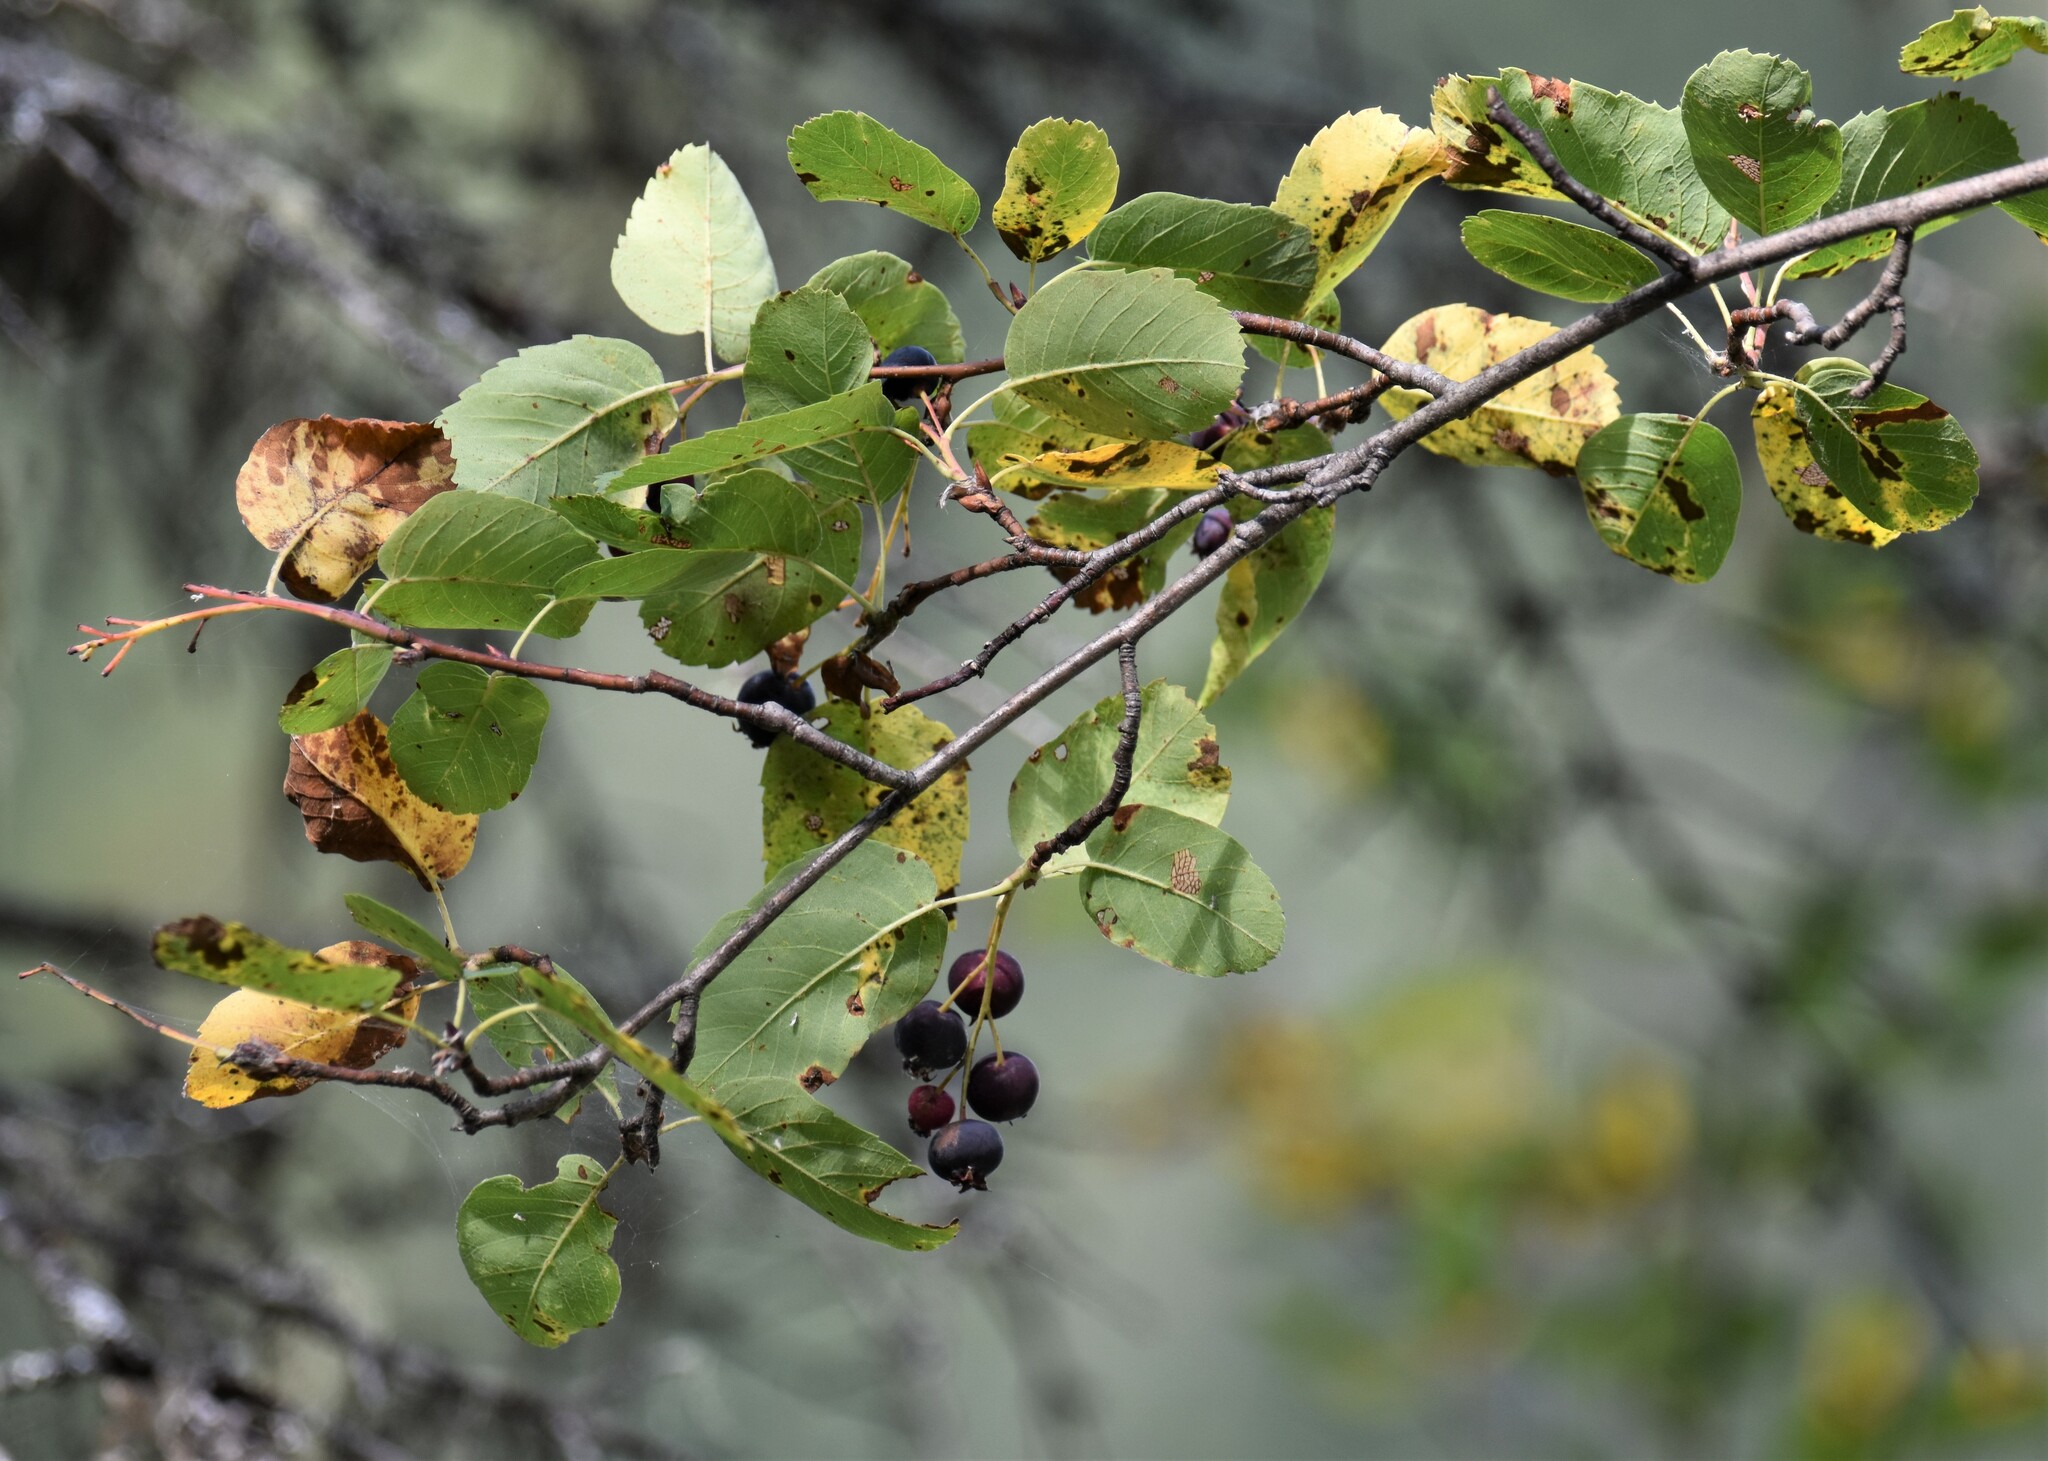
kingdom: Plantae
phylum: Tracheophyta
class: Magnoliopsida
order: Rosales
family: Rosaceae
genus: Amelanchier
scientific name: Amelanchier alnifolia
